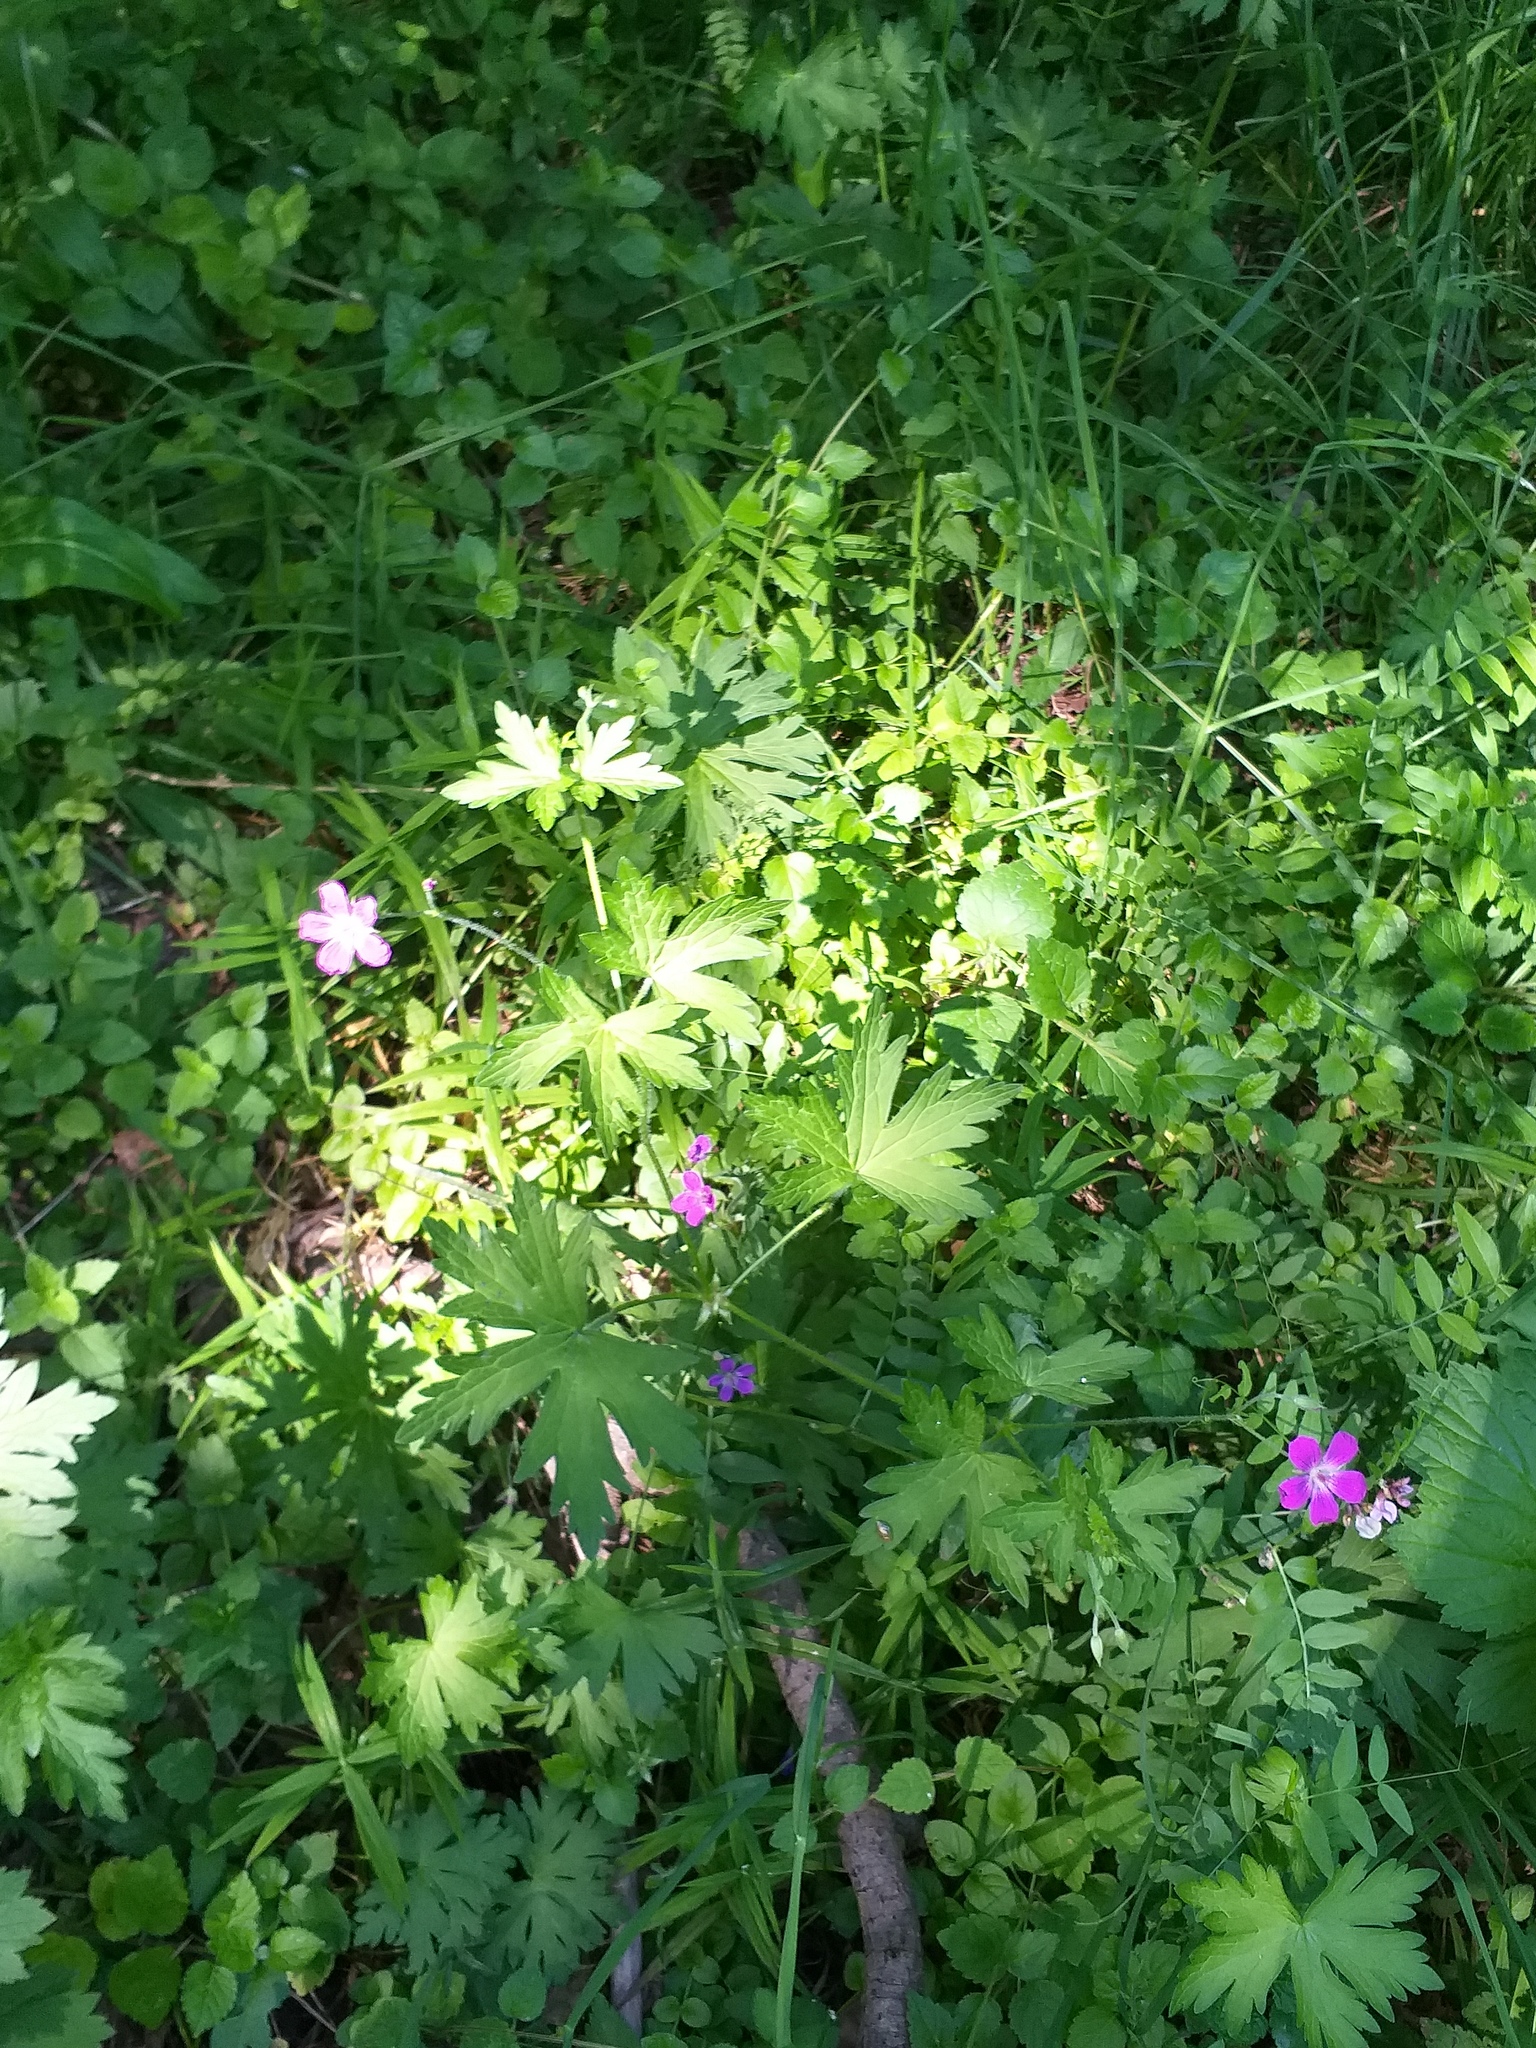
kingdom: Plantae
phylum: Tracheophyta
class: Magnoliopsida
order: Geraniales
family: Geraniaceae
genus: Geranium
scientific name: Geranium palustre
